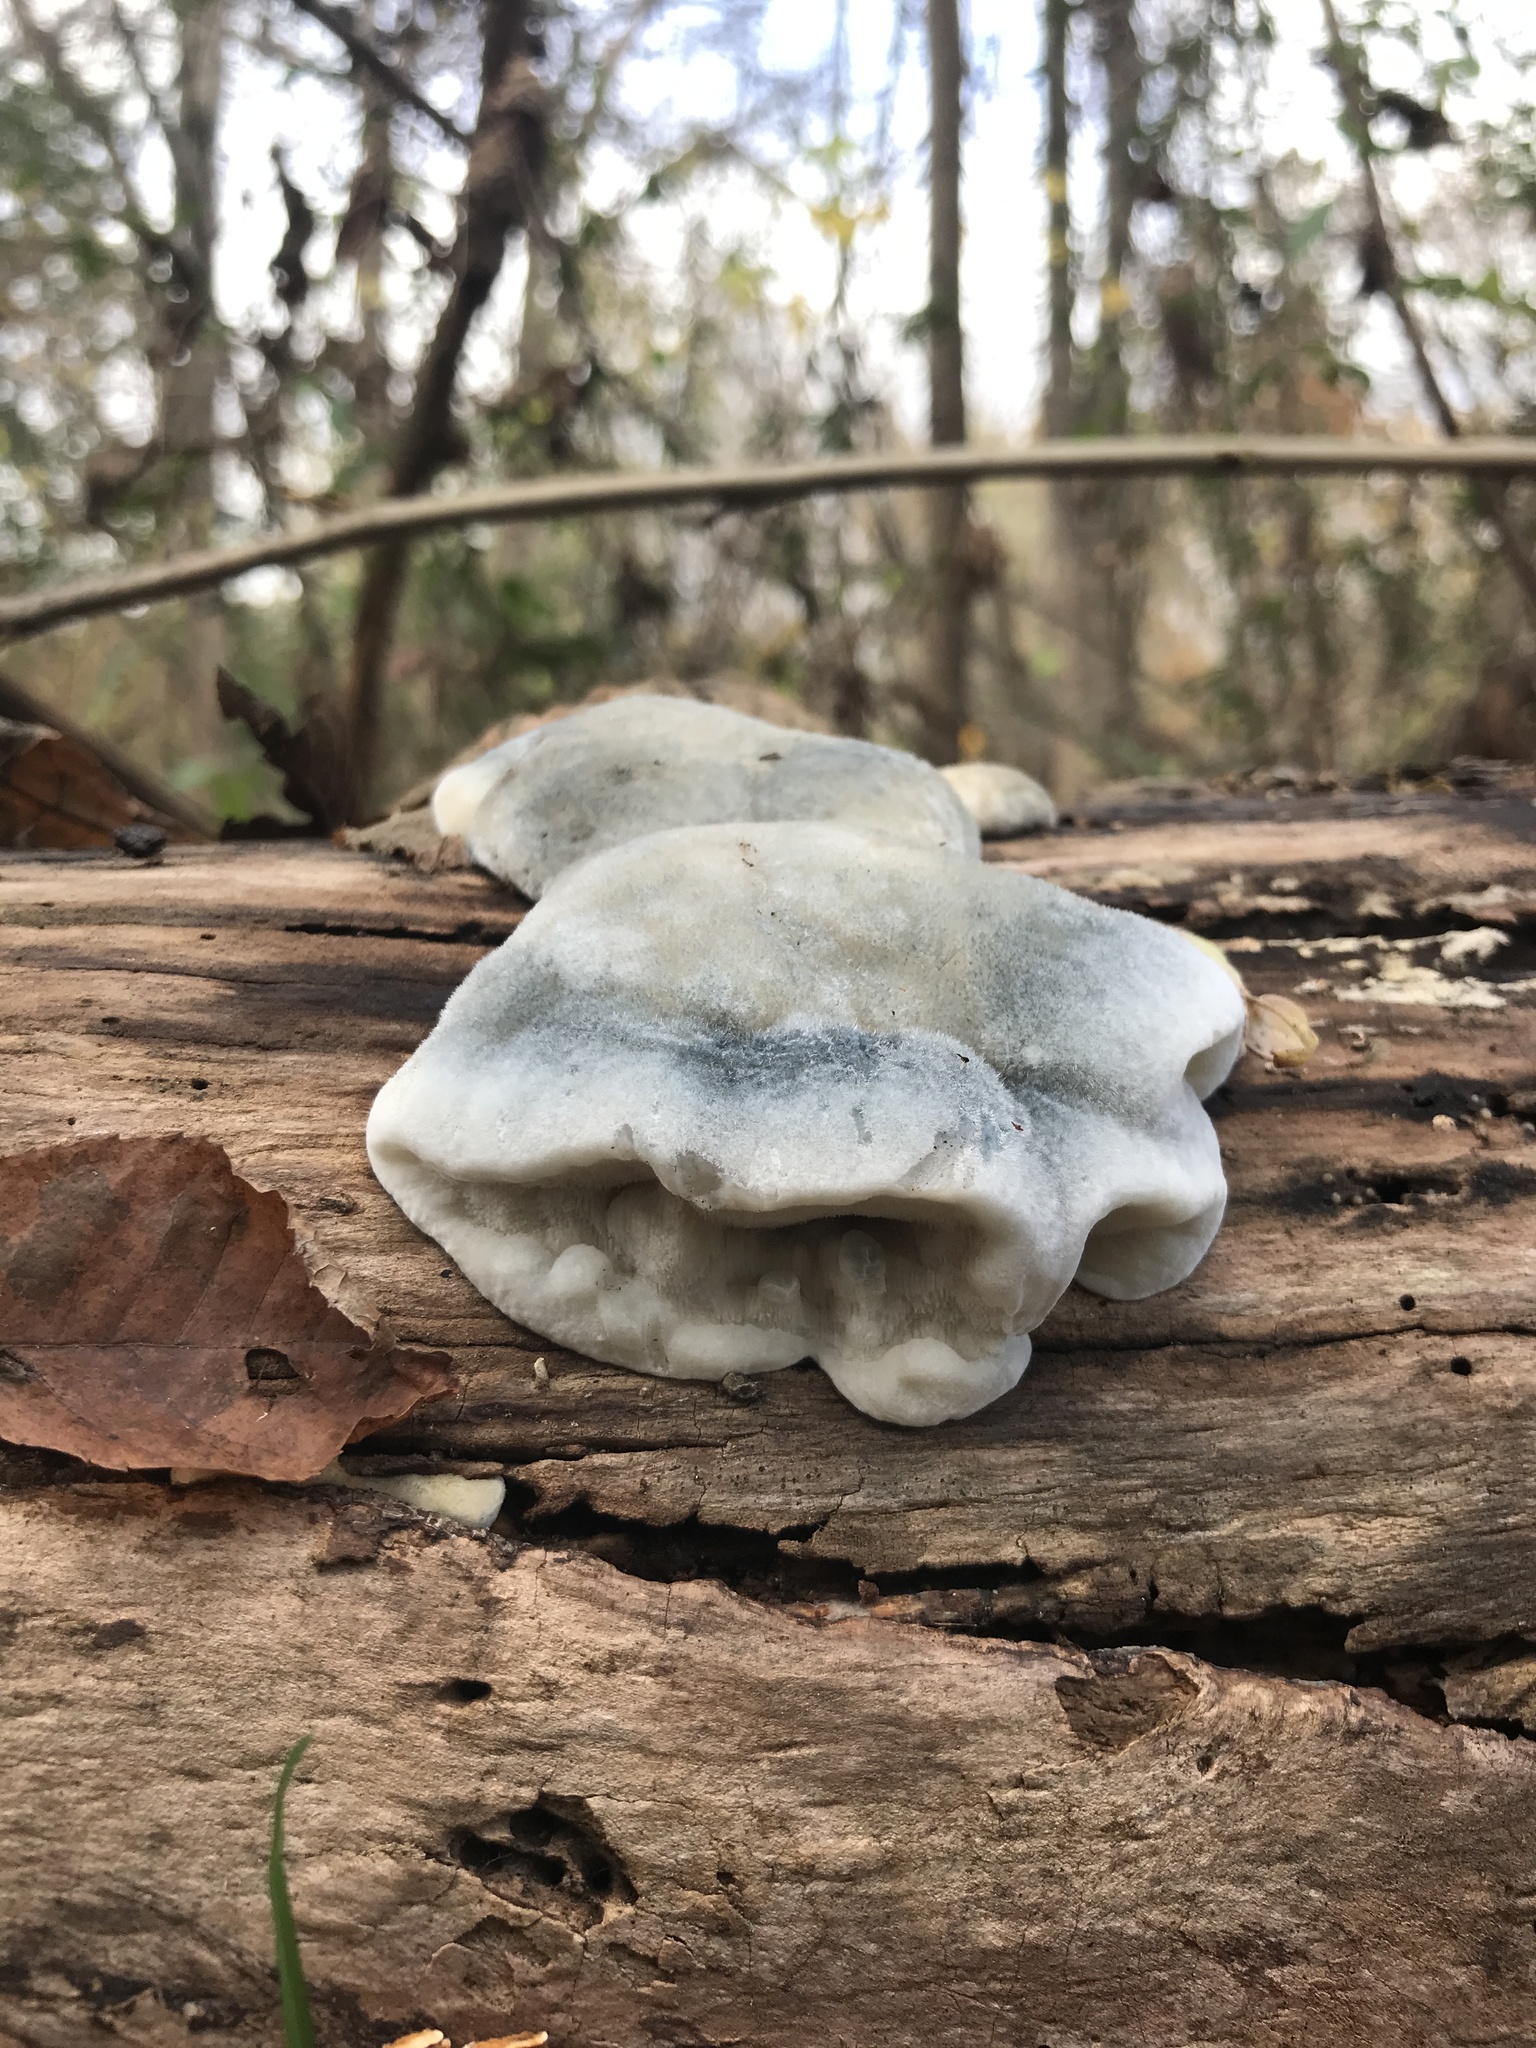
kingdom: Fungi
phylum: Basidiomycota
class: Agaricomycetes
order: Polyporales
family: Polyporaceae
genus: Cyanosporus
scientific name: Cyanosporus caesius
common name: Blue cheese polypore
